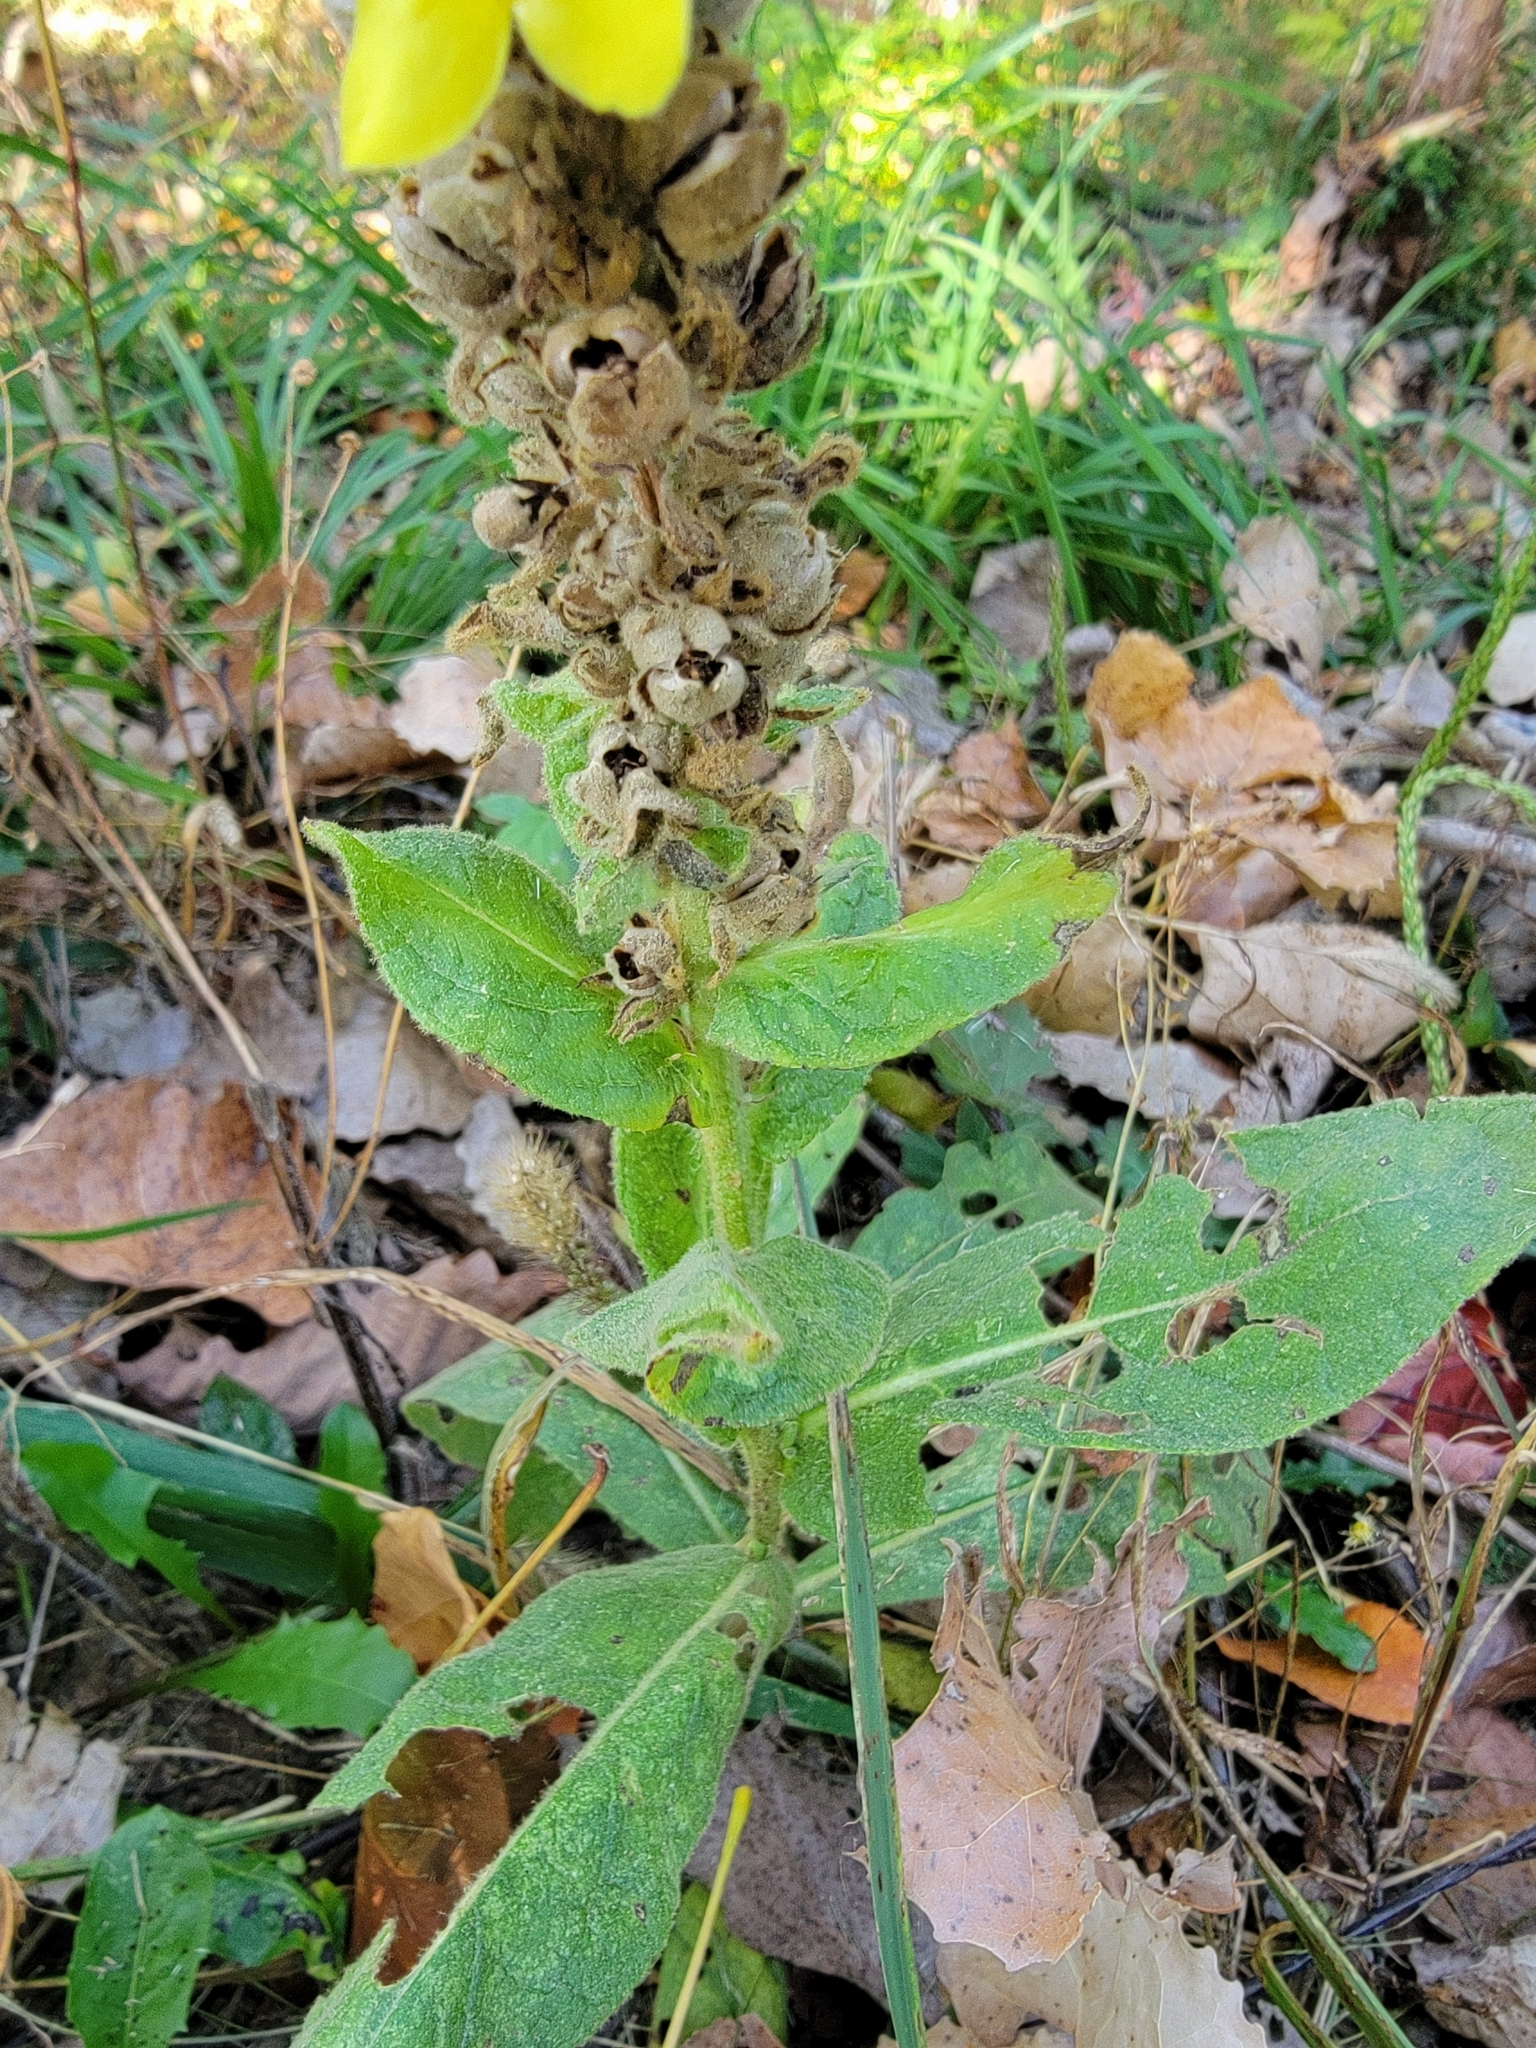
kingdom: Plantae
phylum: Tracheophyta
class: Magnoliopsida
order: Lamiales
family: Scrophulariaceae
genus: Verbascum
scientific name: Verbascum thapsus
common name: Common mullein
